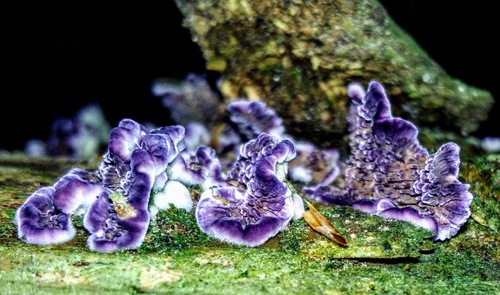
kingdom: Fungi
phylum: Basidiomycota
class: Agaricomycetes
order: Hymenochaetales
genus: Trichaptum
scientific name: Trichaptum fuscoviolaceum
